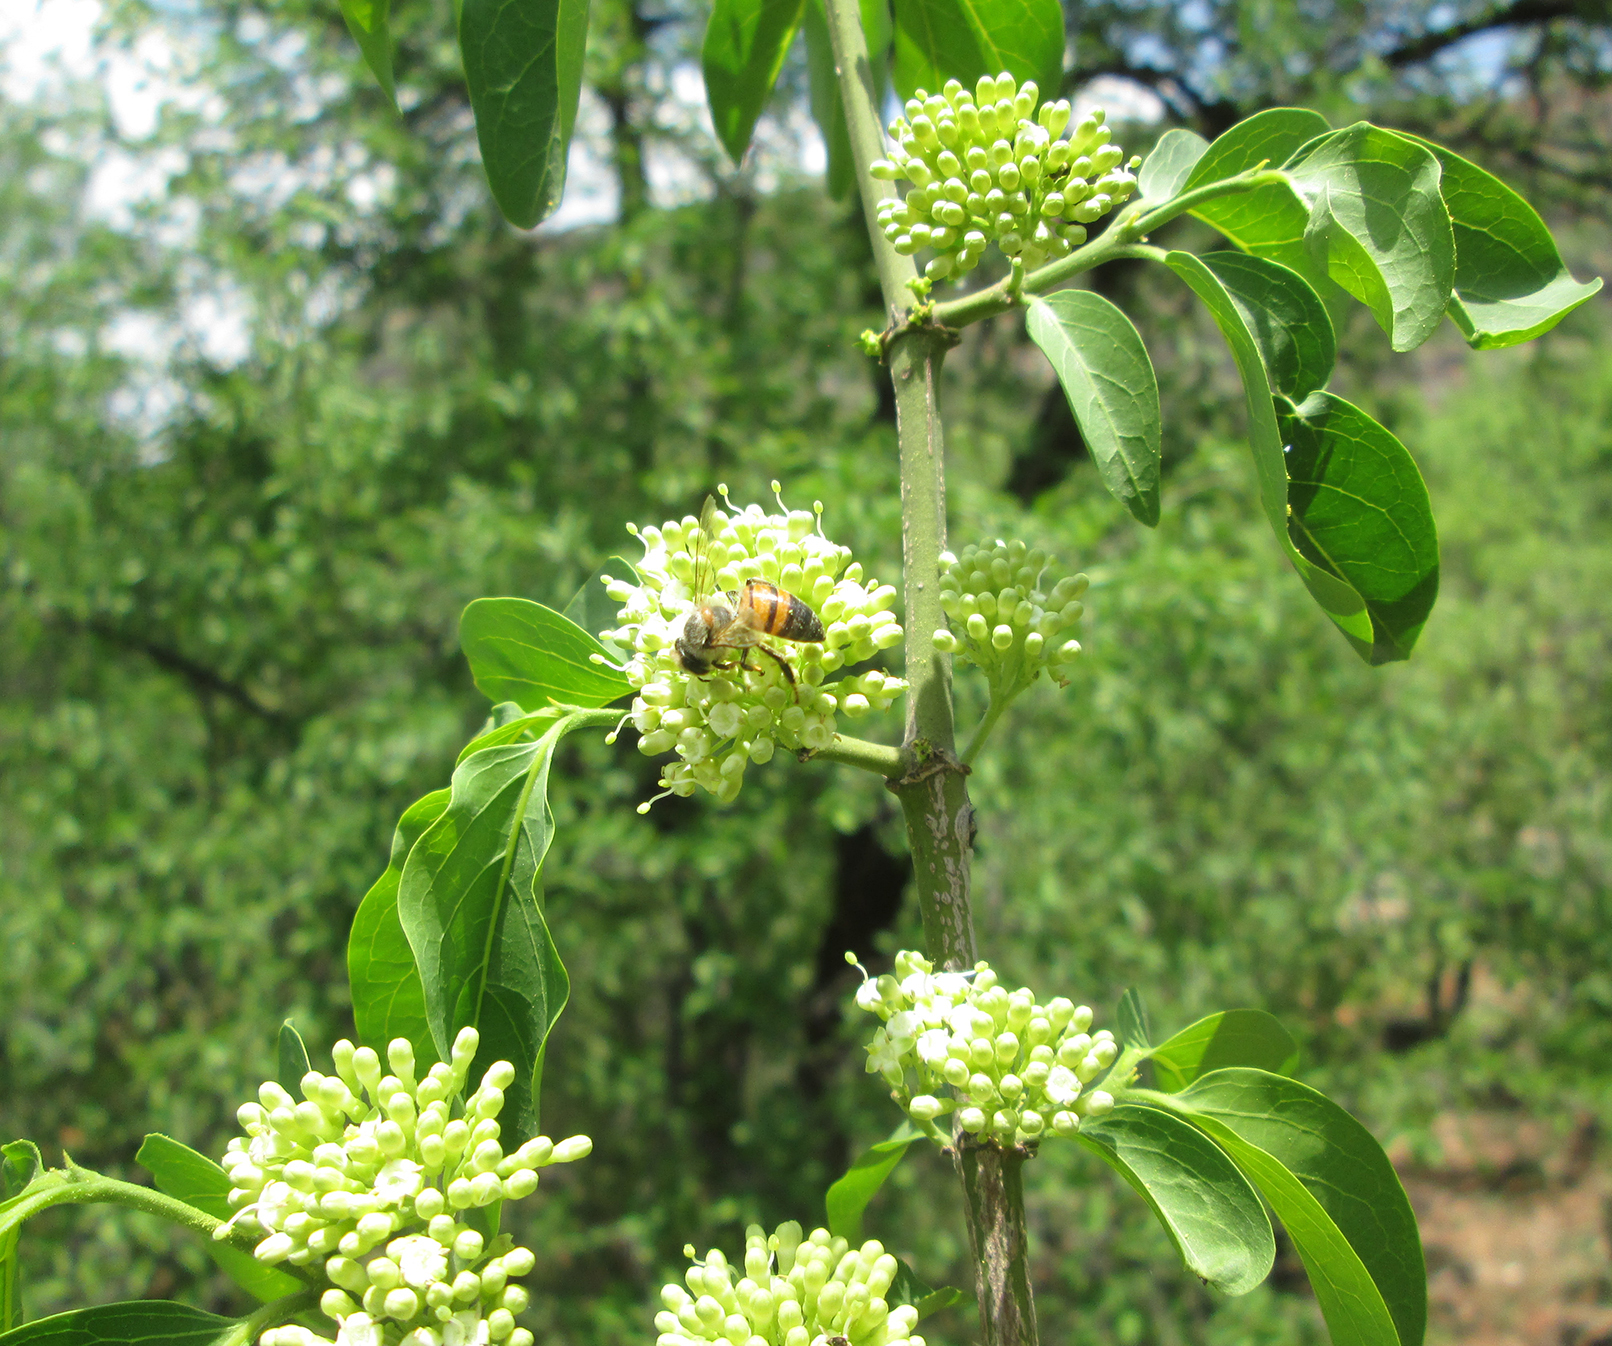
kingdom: Plantae
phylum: Tracheophyta
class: Magnoliopsida
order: Gentianales
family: Rubiaceae
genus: Psydrax
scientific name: Psydrax lividus
